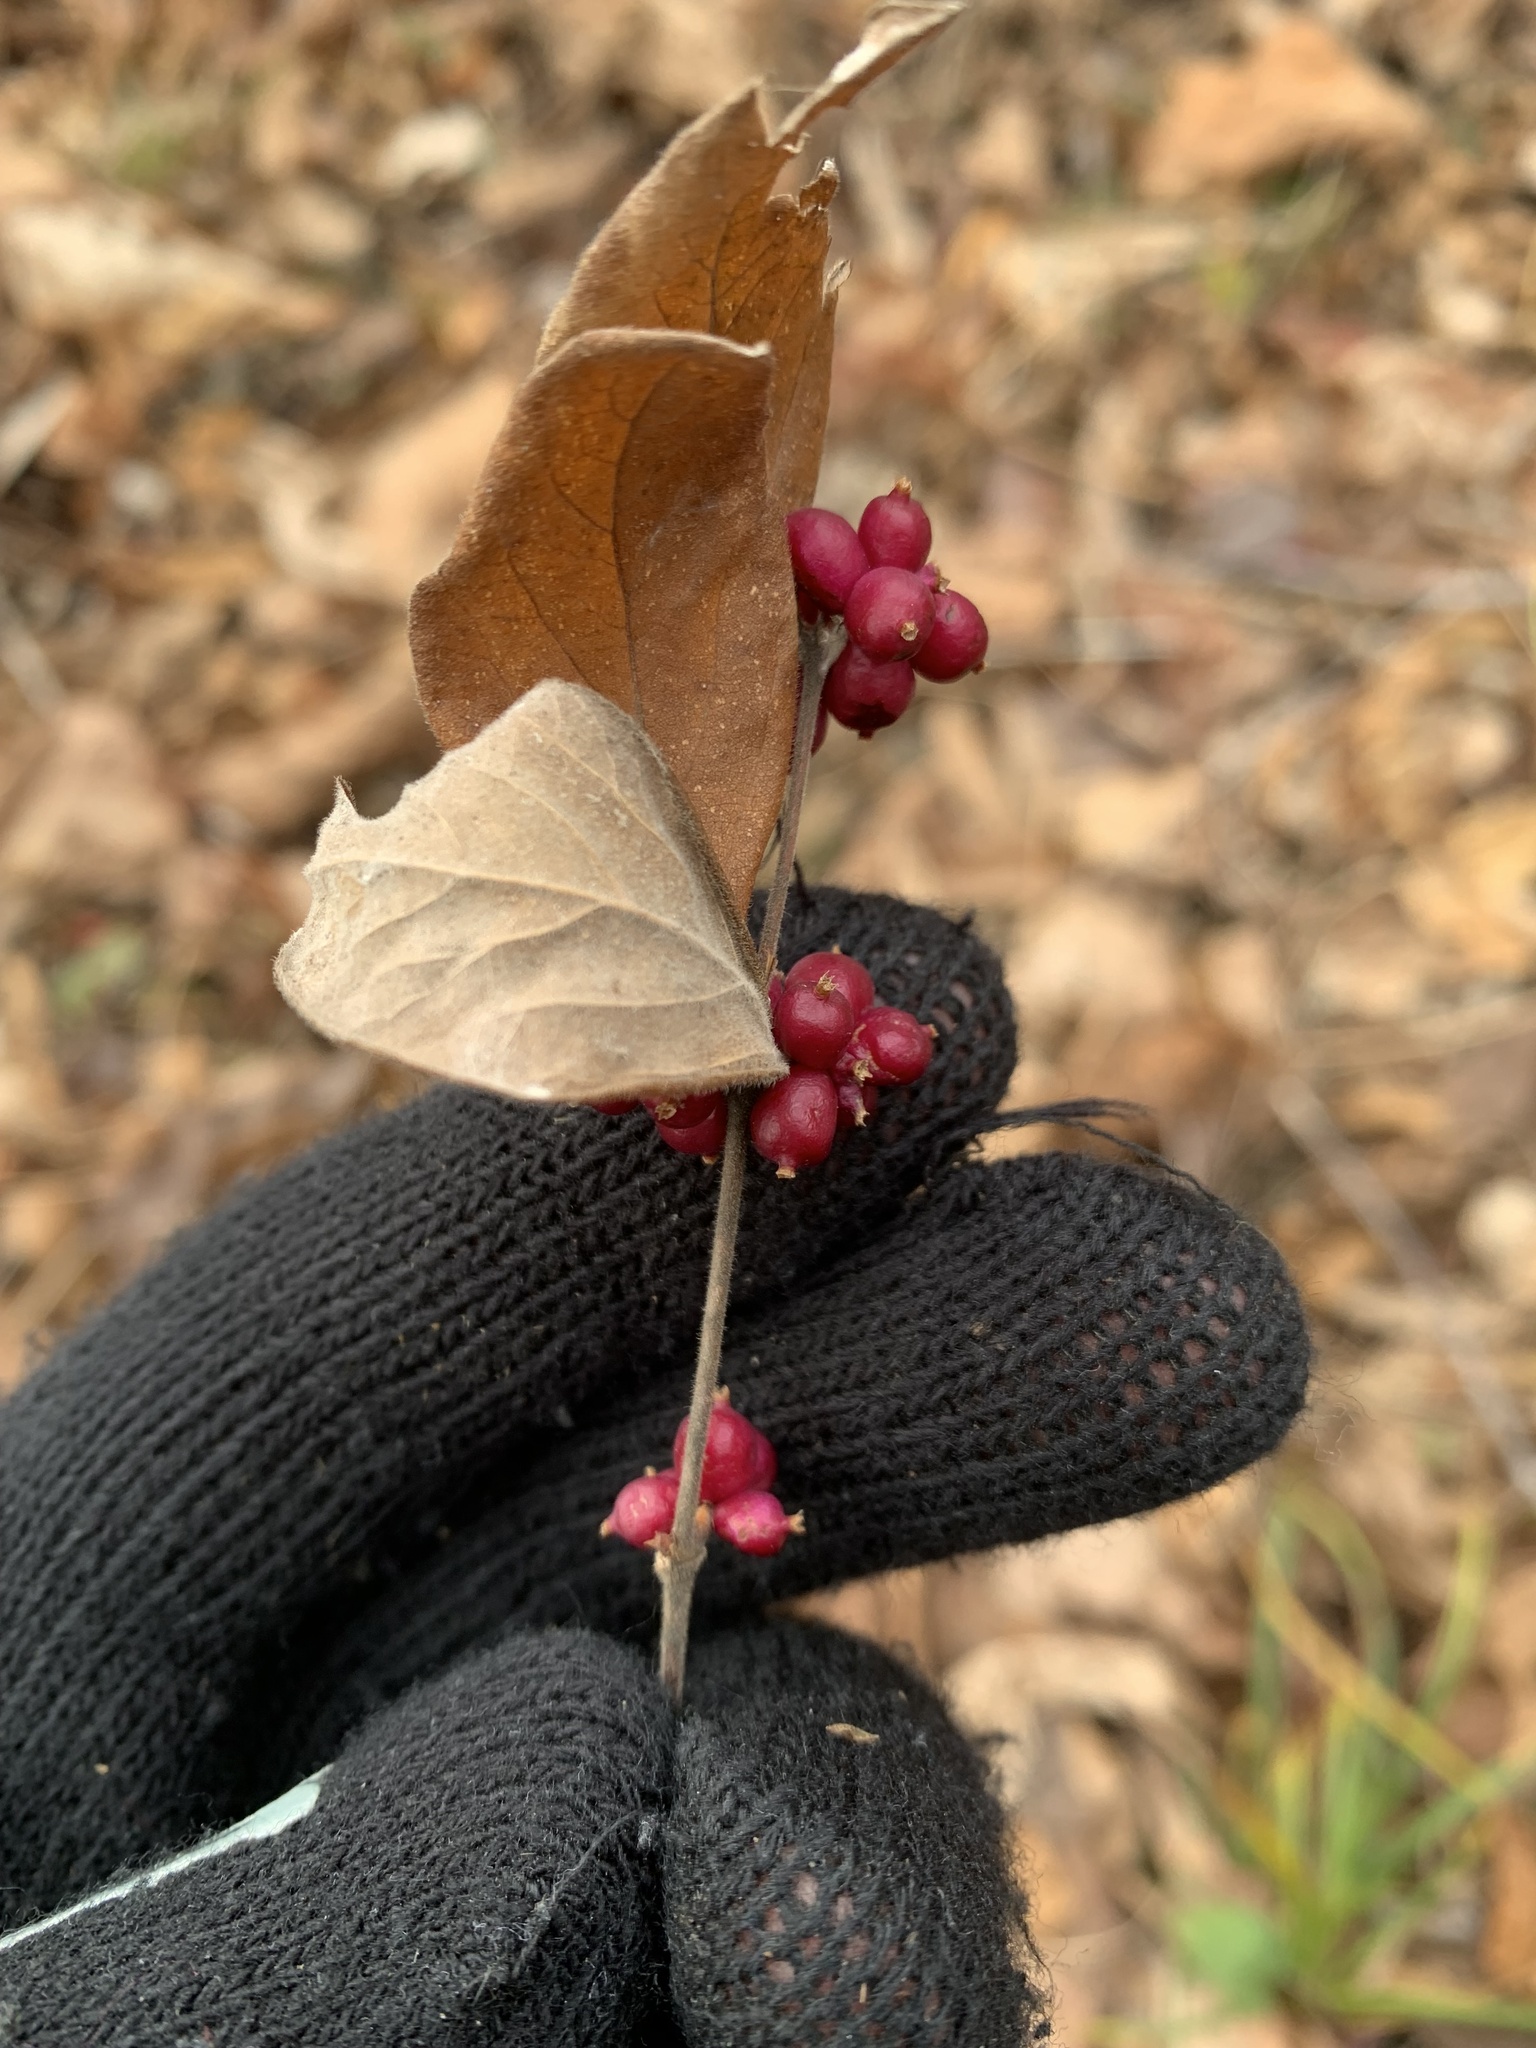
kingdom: Plantae
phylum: Tracheophyta
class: Magnoliopsida
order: Dipsacales
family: Caprifoliaceae
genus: Symphoricarpos
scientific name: Symphoricarpos orbiculatus
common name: Coralberry
